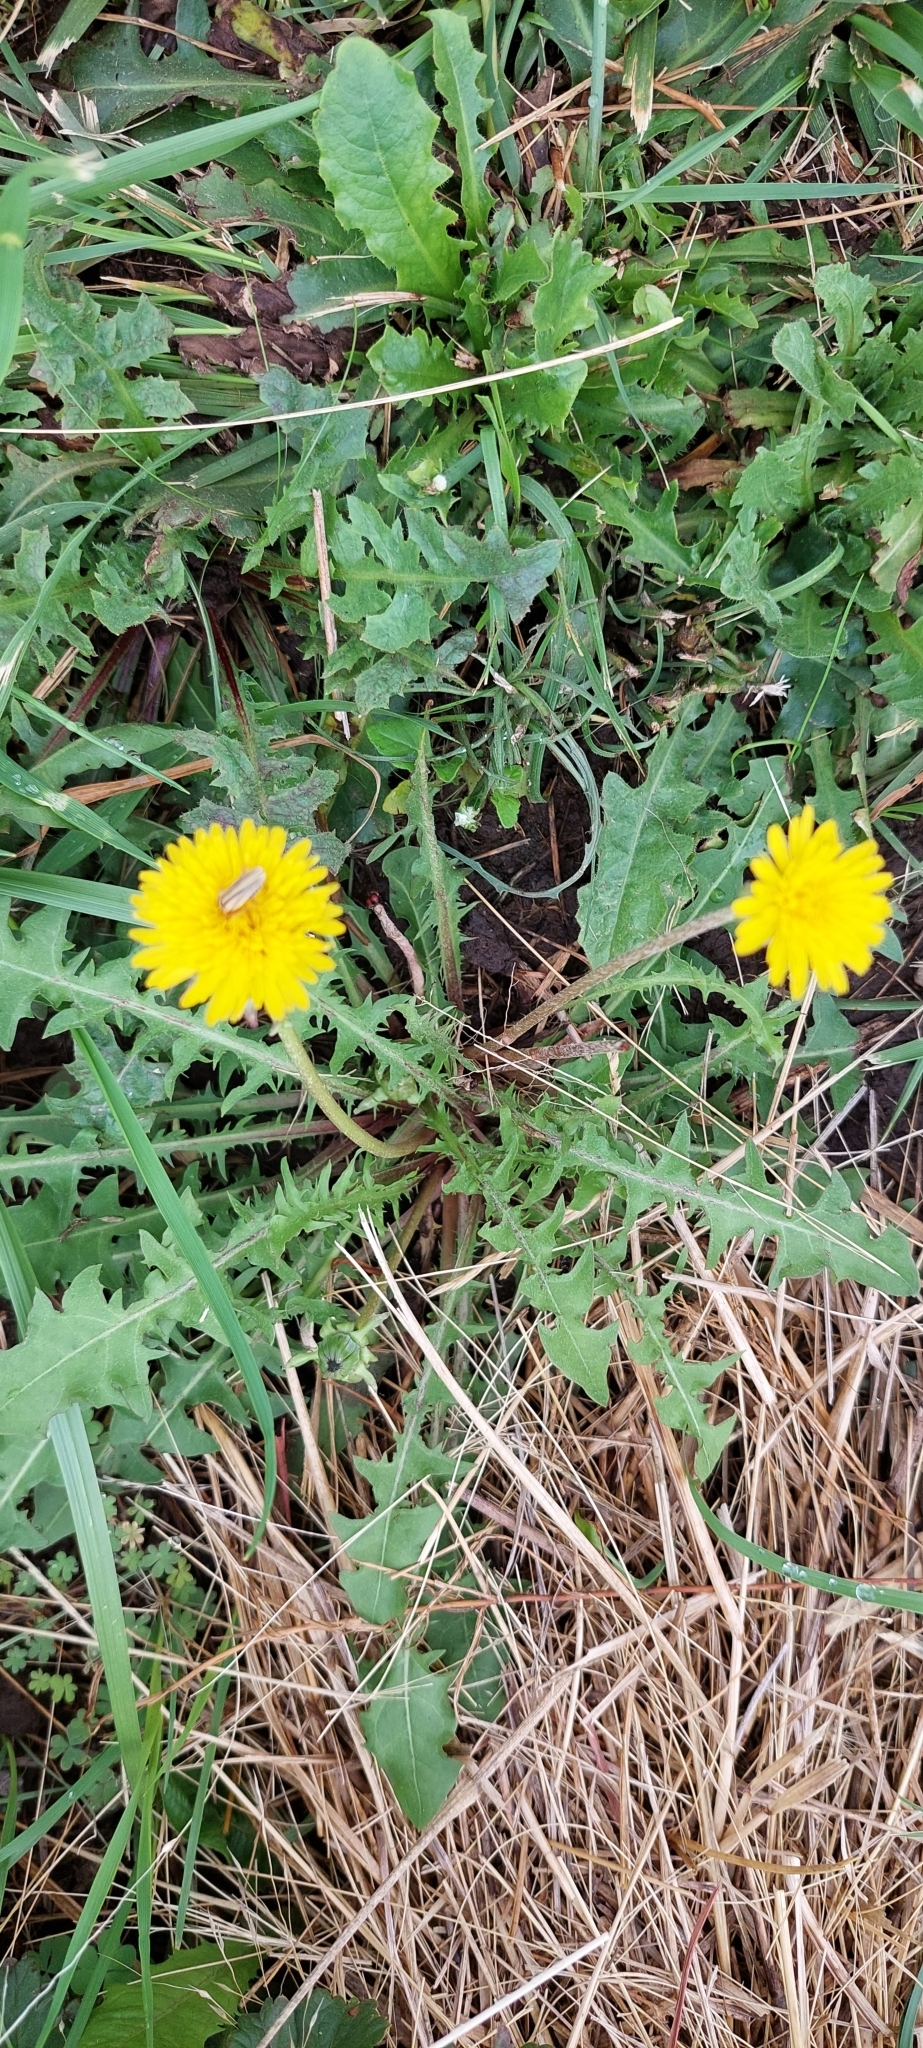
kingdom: Plantae
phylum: Tracheophyta
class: Magnoliopsida
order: Asterales
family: Asteraceae
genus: Taraxacum
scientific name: Taraxacum officinale
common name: Common dandelion
